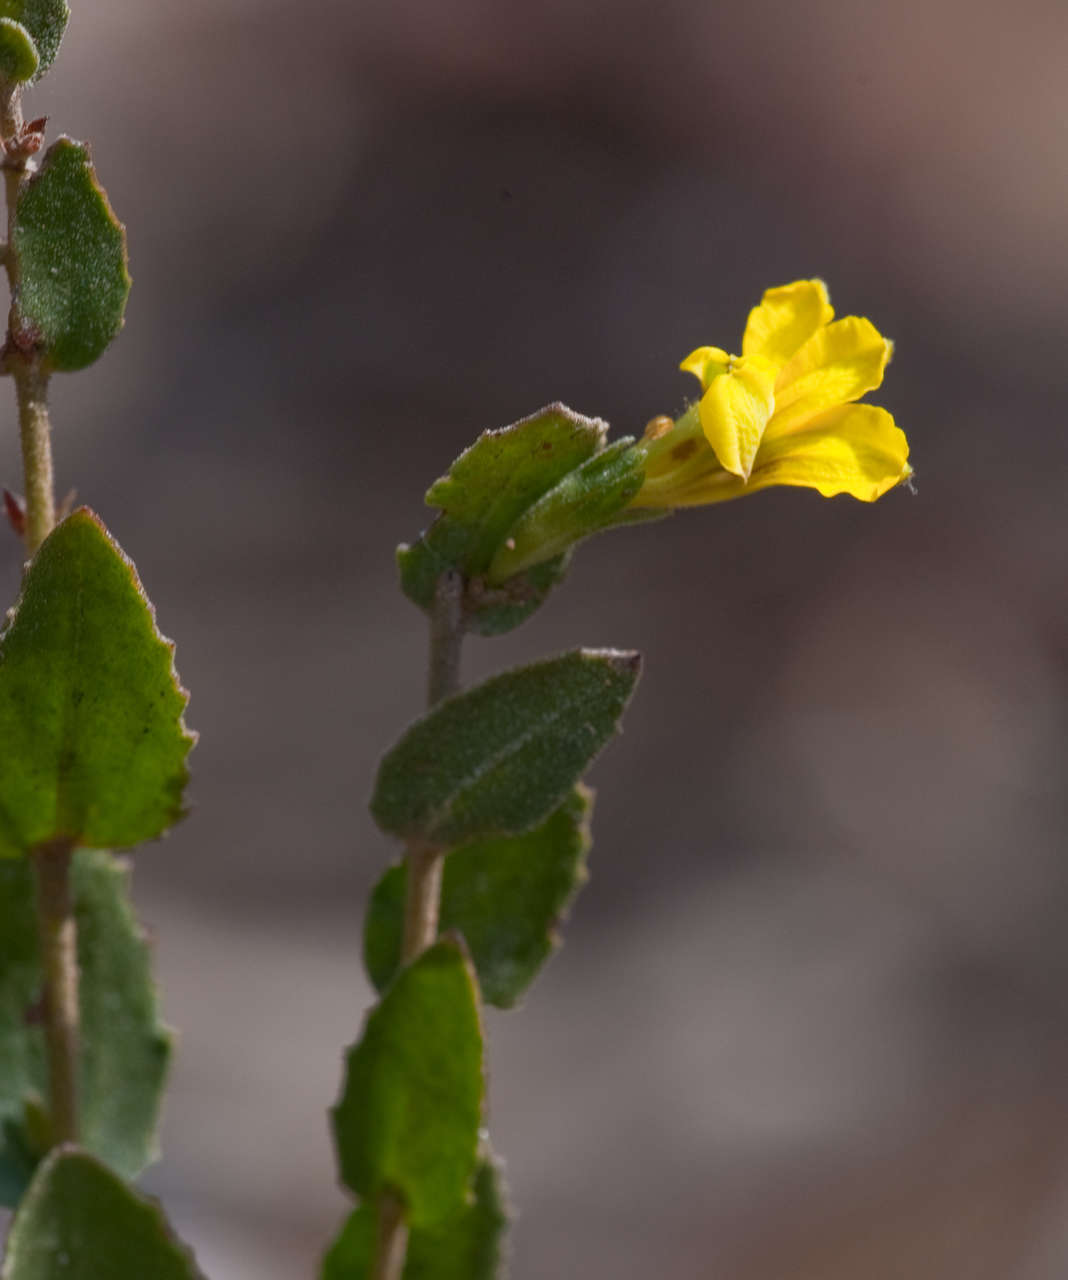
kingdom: Plantae
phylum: Tracheophyta
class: Magnoliopsida
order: Asterales
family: Goodeniaceae
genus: Goodenia
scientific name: Goodenia benthamiana
